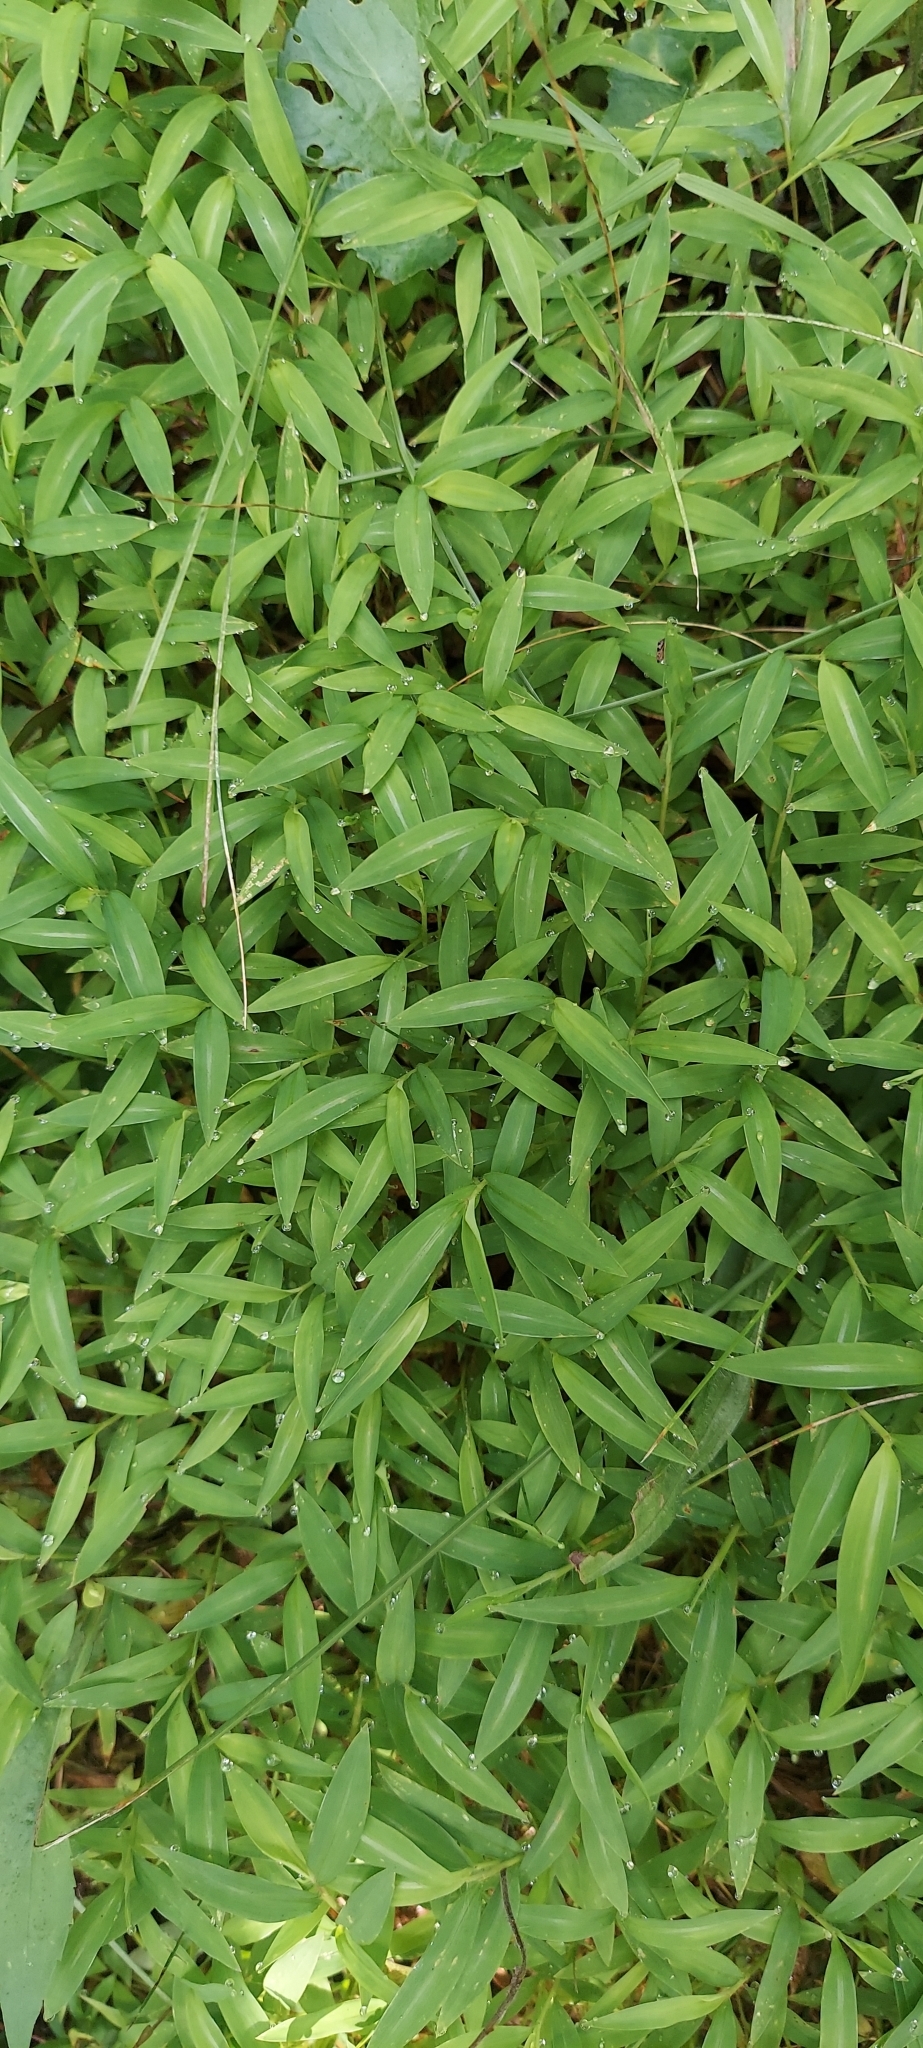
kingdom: Plantae
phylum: Tracheophyta
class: Liliopsida
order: Poales
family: Poaceae
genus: Microstegium
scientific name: Microstegium vimineum
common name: Japanese stiltgrass
